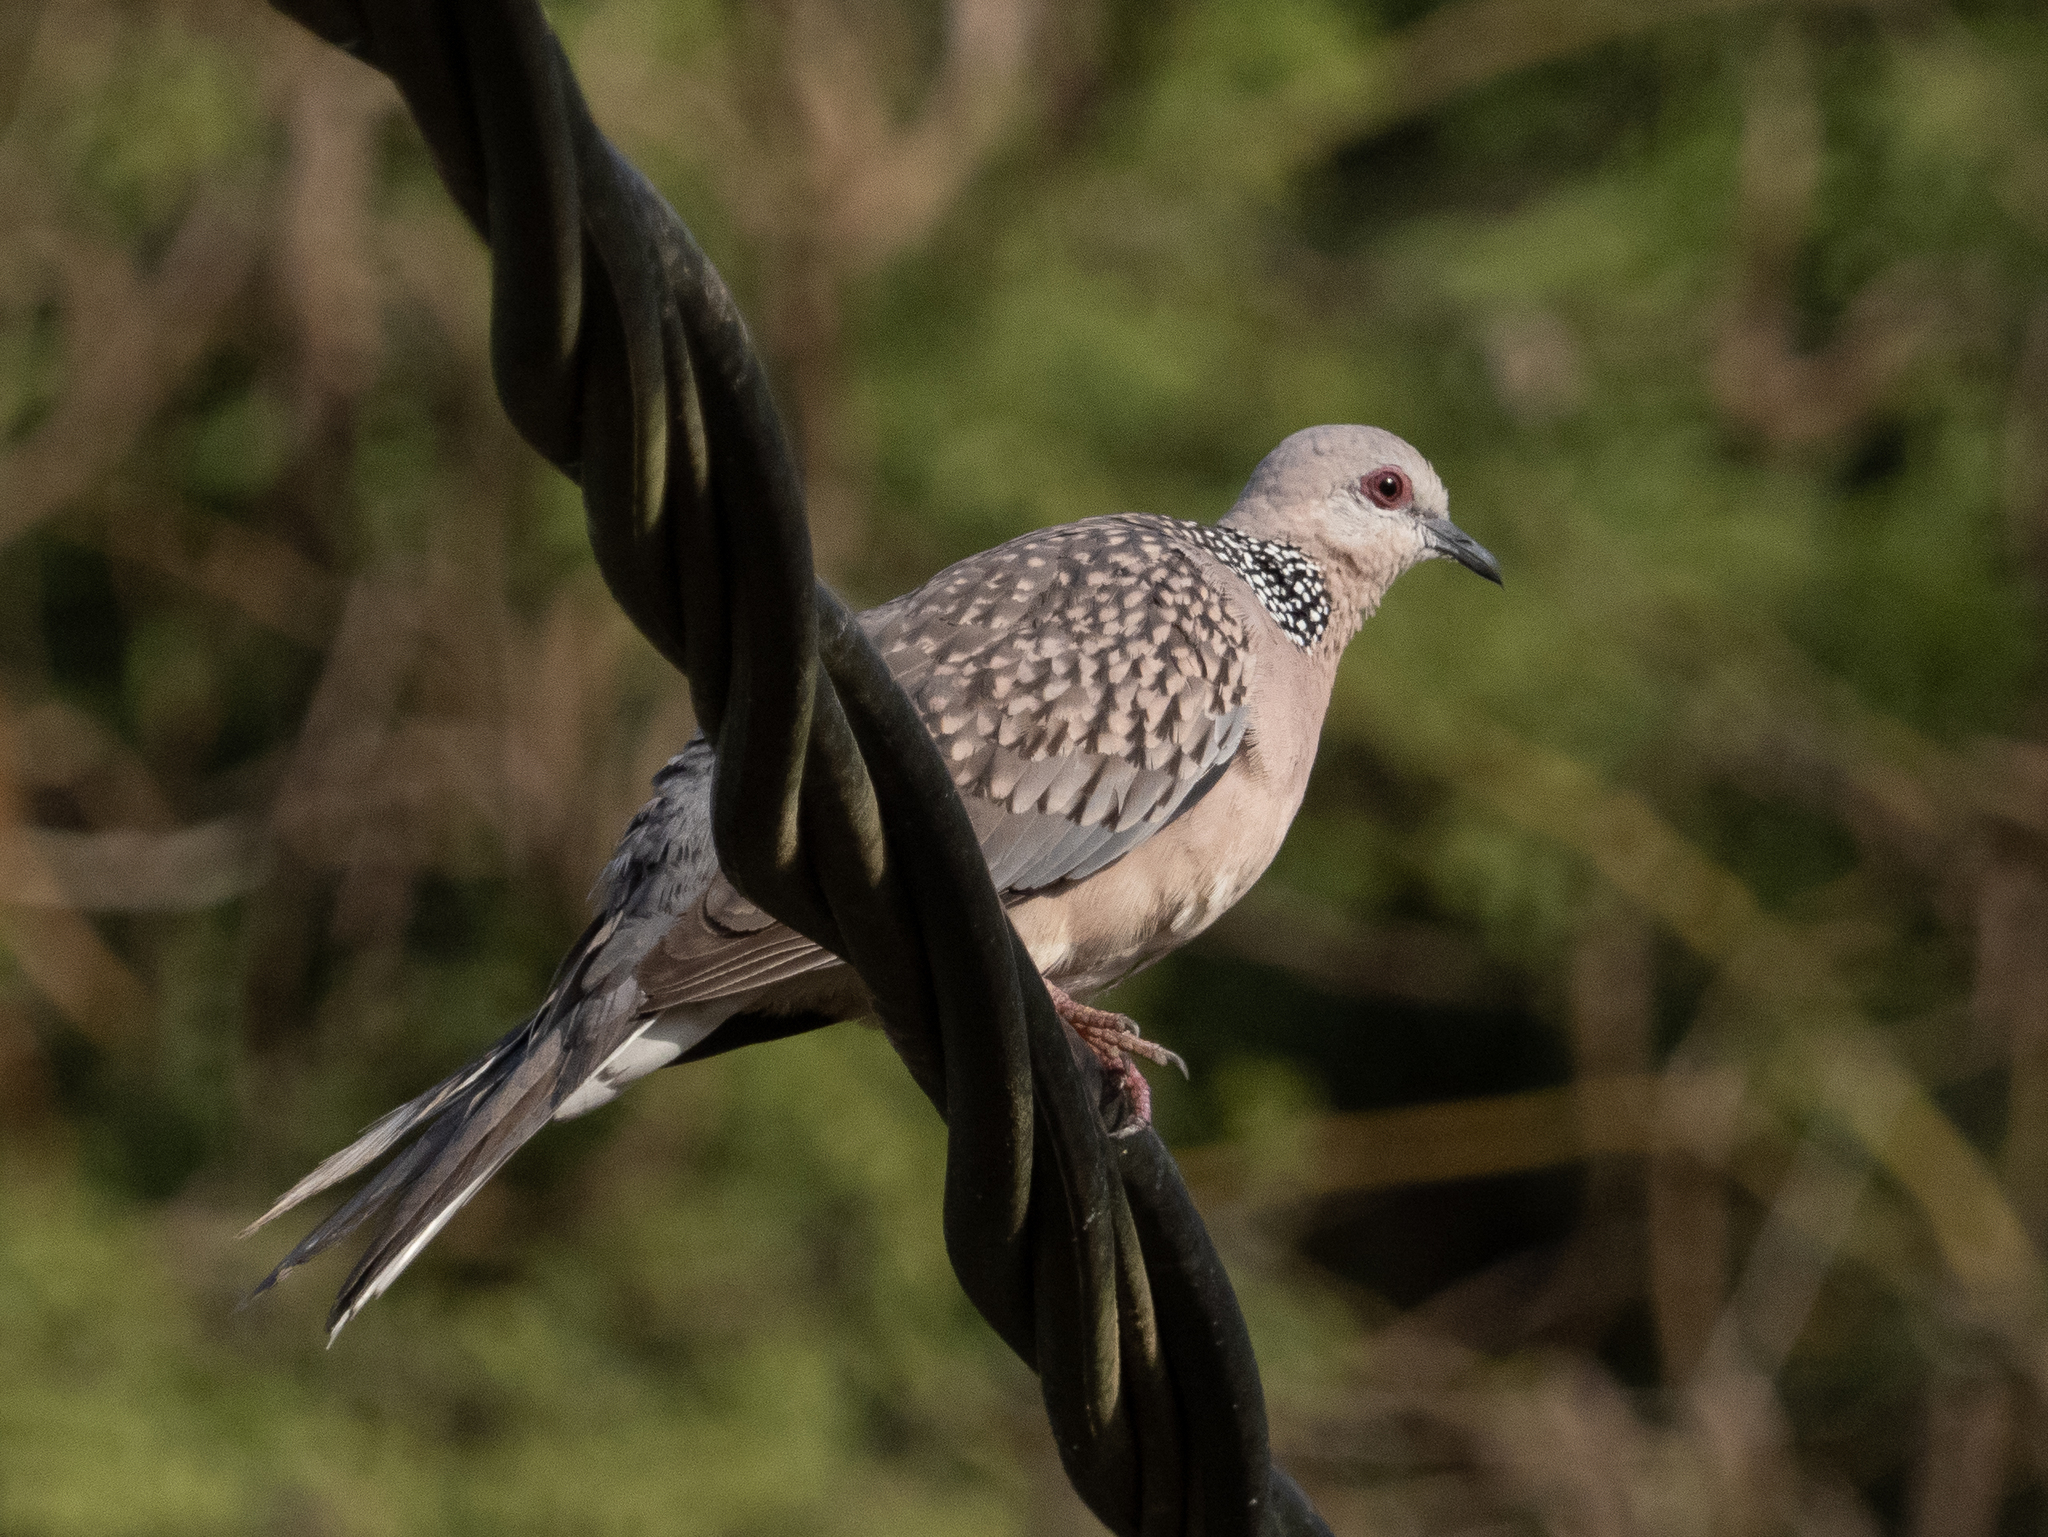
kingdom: Animalia
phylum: Chordata
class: Aves
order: Columbiformes
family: Columbidae
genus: Spilopelia
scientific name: Spilopelia chinensis
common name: Spotted dove
